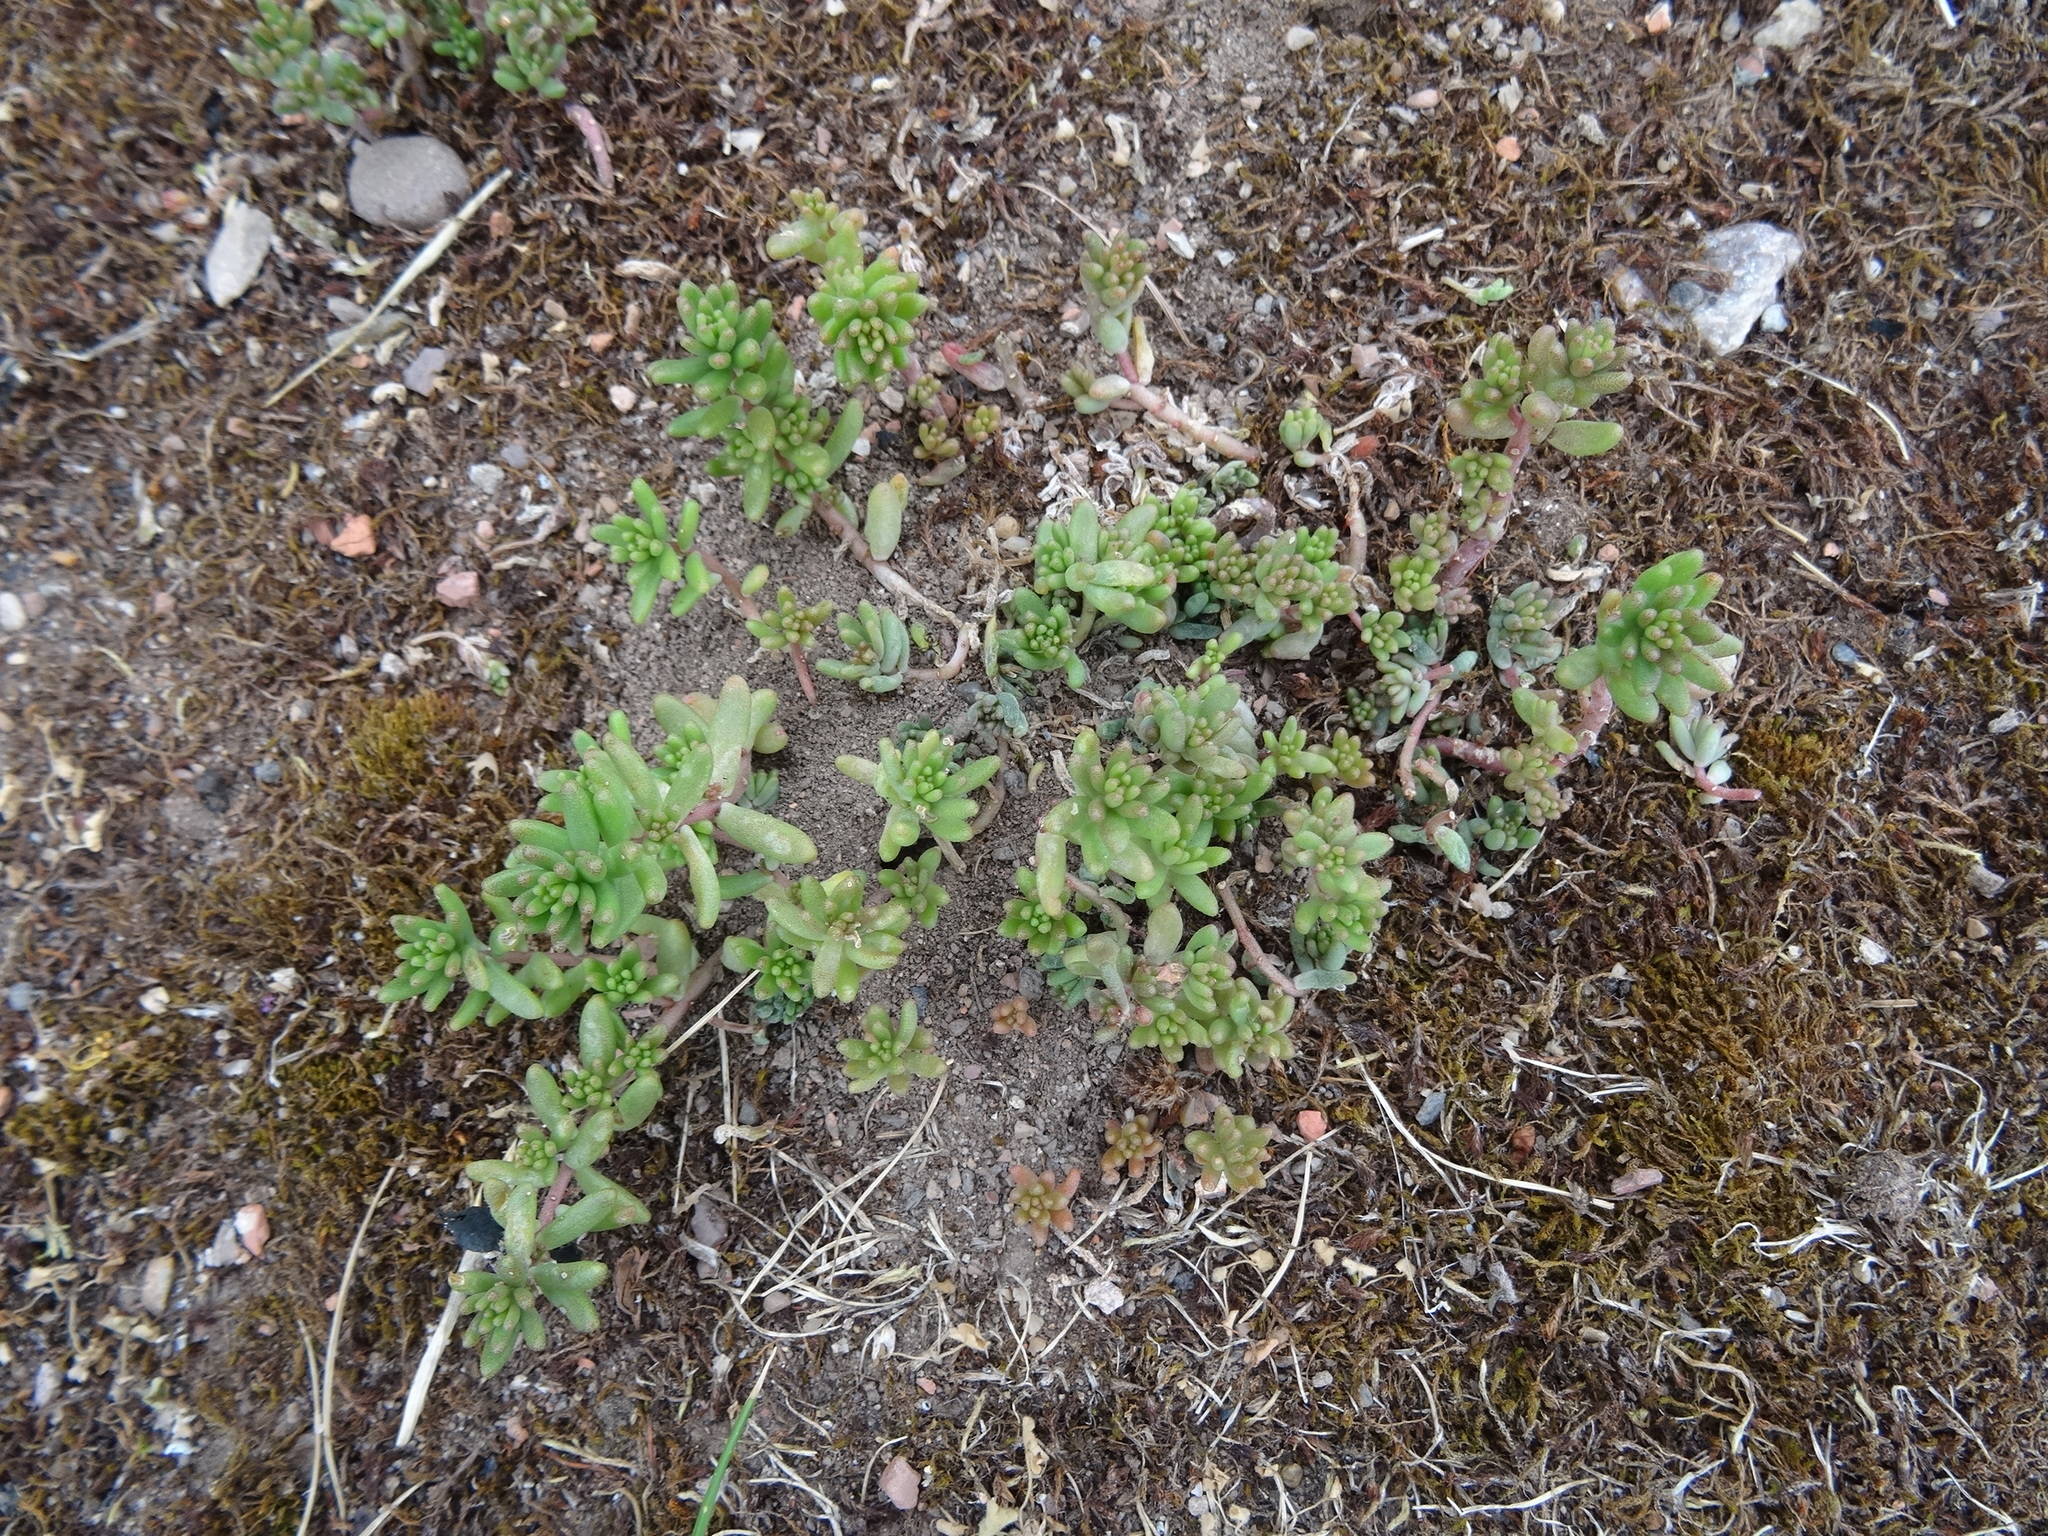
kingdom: Plantae
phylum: Tracheophyta
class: Magnoliopsida
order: Saxifragales
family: Crassulaceae
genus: Sedum
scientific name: Sedum album
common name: White stonecrop
